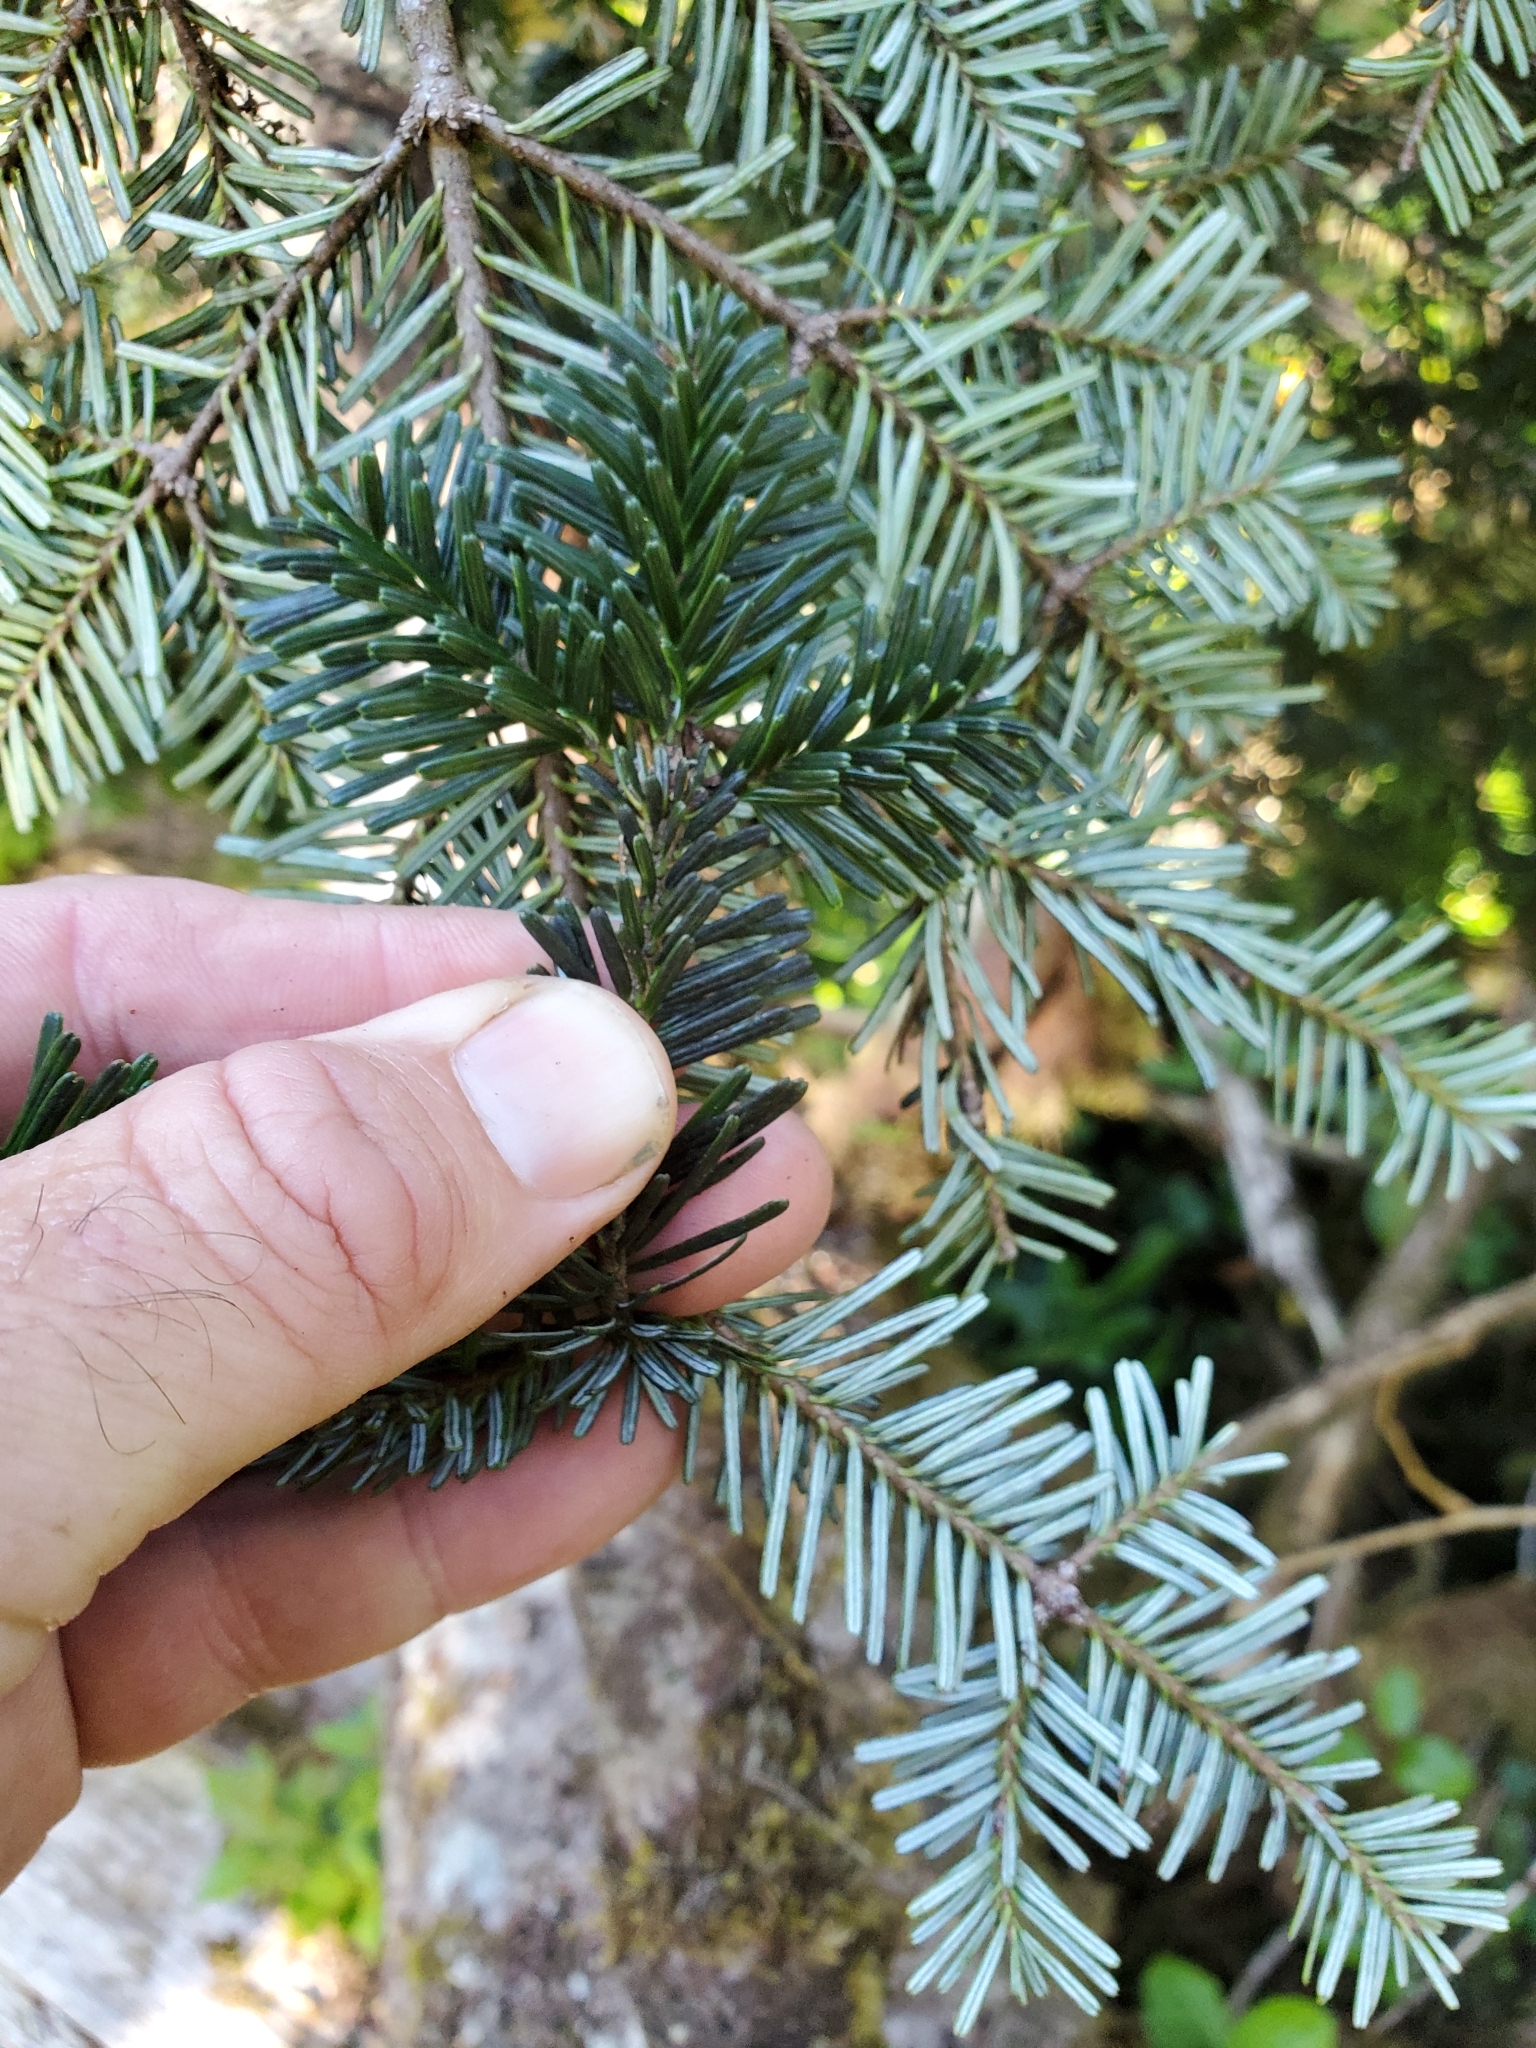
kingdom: Plantae
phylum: Tracheophyta
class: Pinopsida
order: Pinales
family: Pinaceae
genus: Abies
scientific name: Abies amabilis
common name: Pacific silver fir
